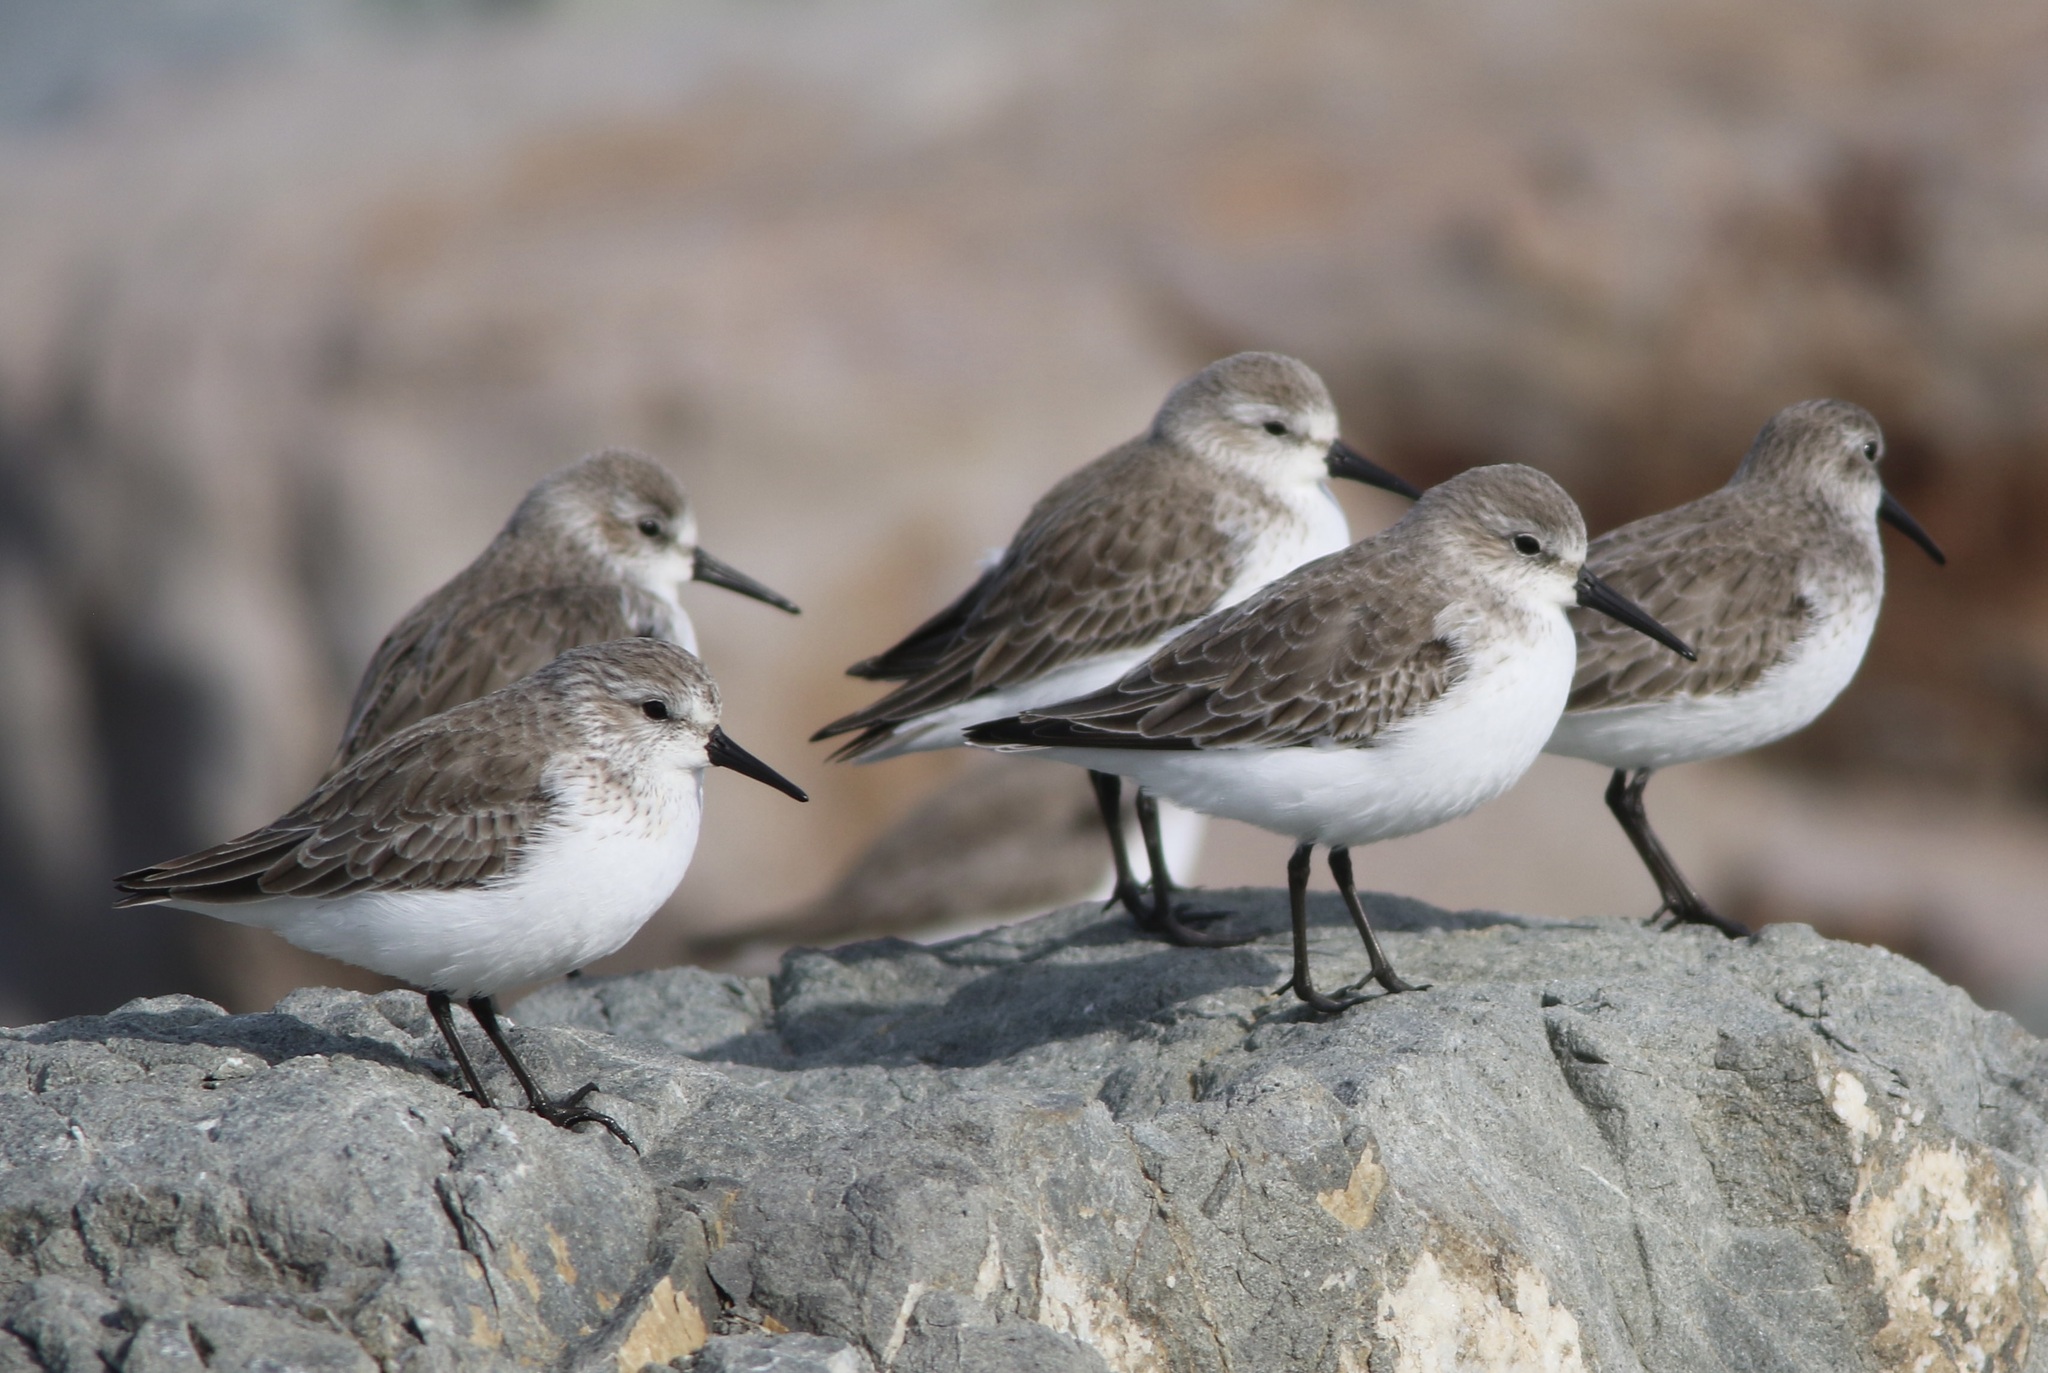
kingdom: Animalia
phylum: Chordata
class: Aves
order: Charadriiformes
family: Scolopacidae
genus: Calidris
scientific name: Calidris mauri
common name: Western sandpiper
